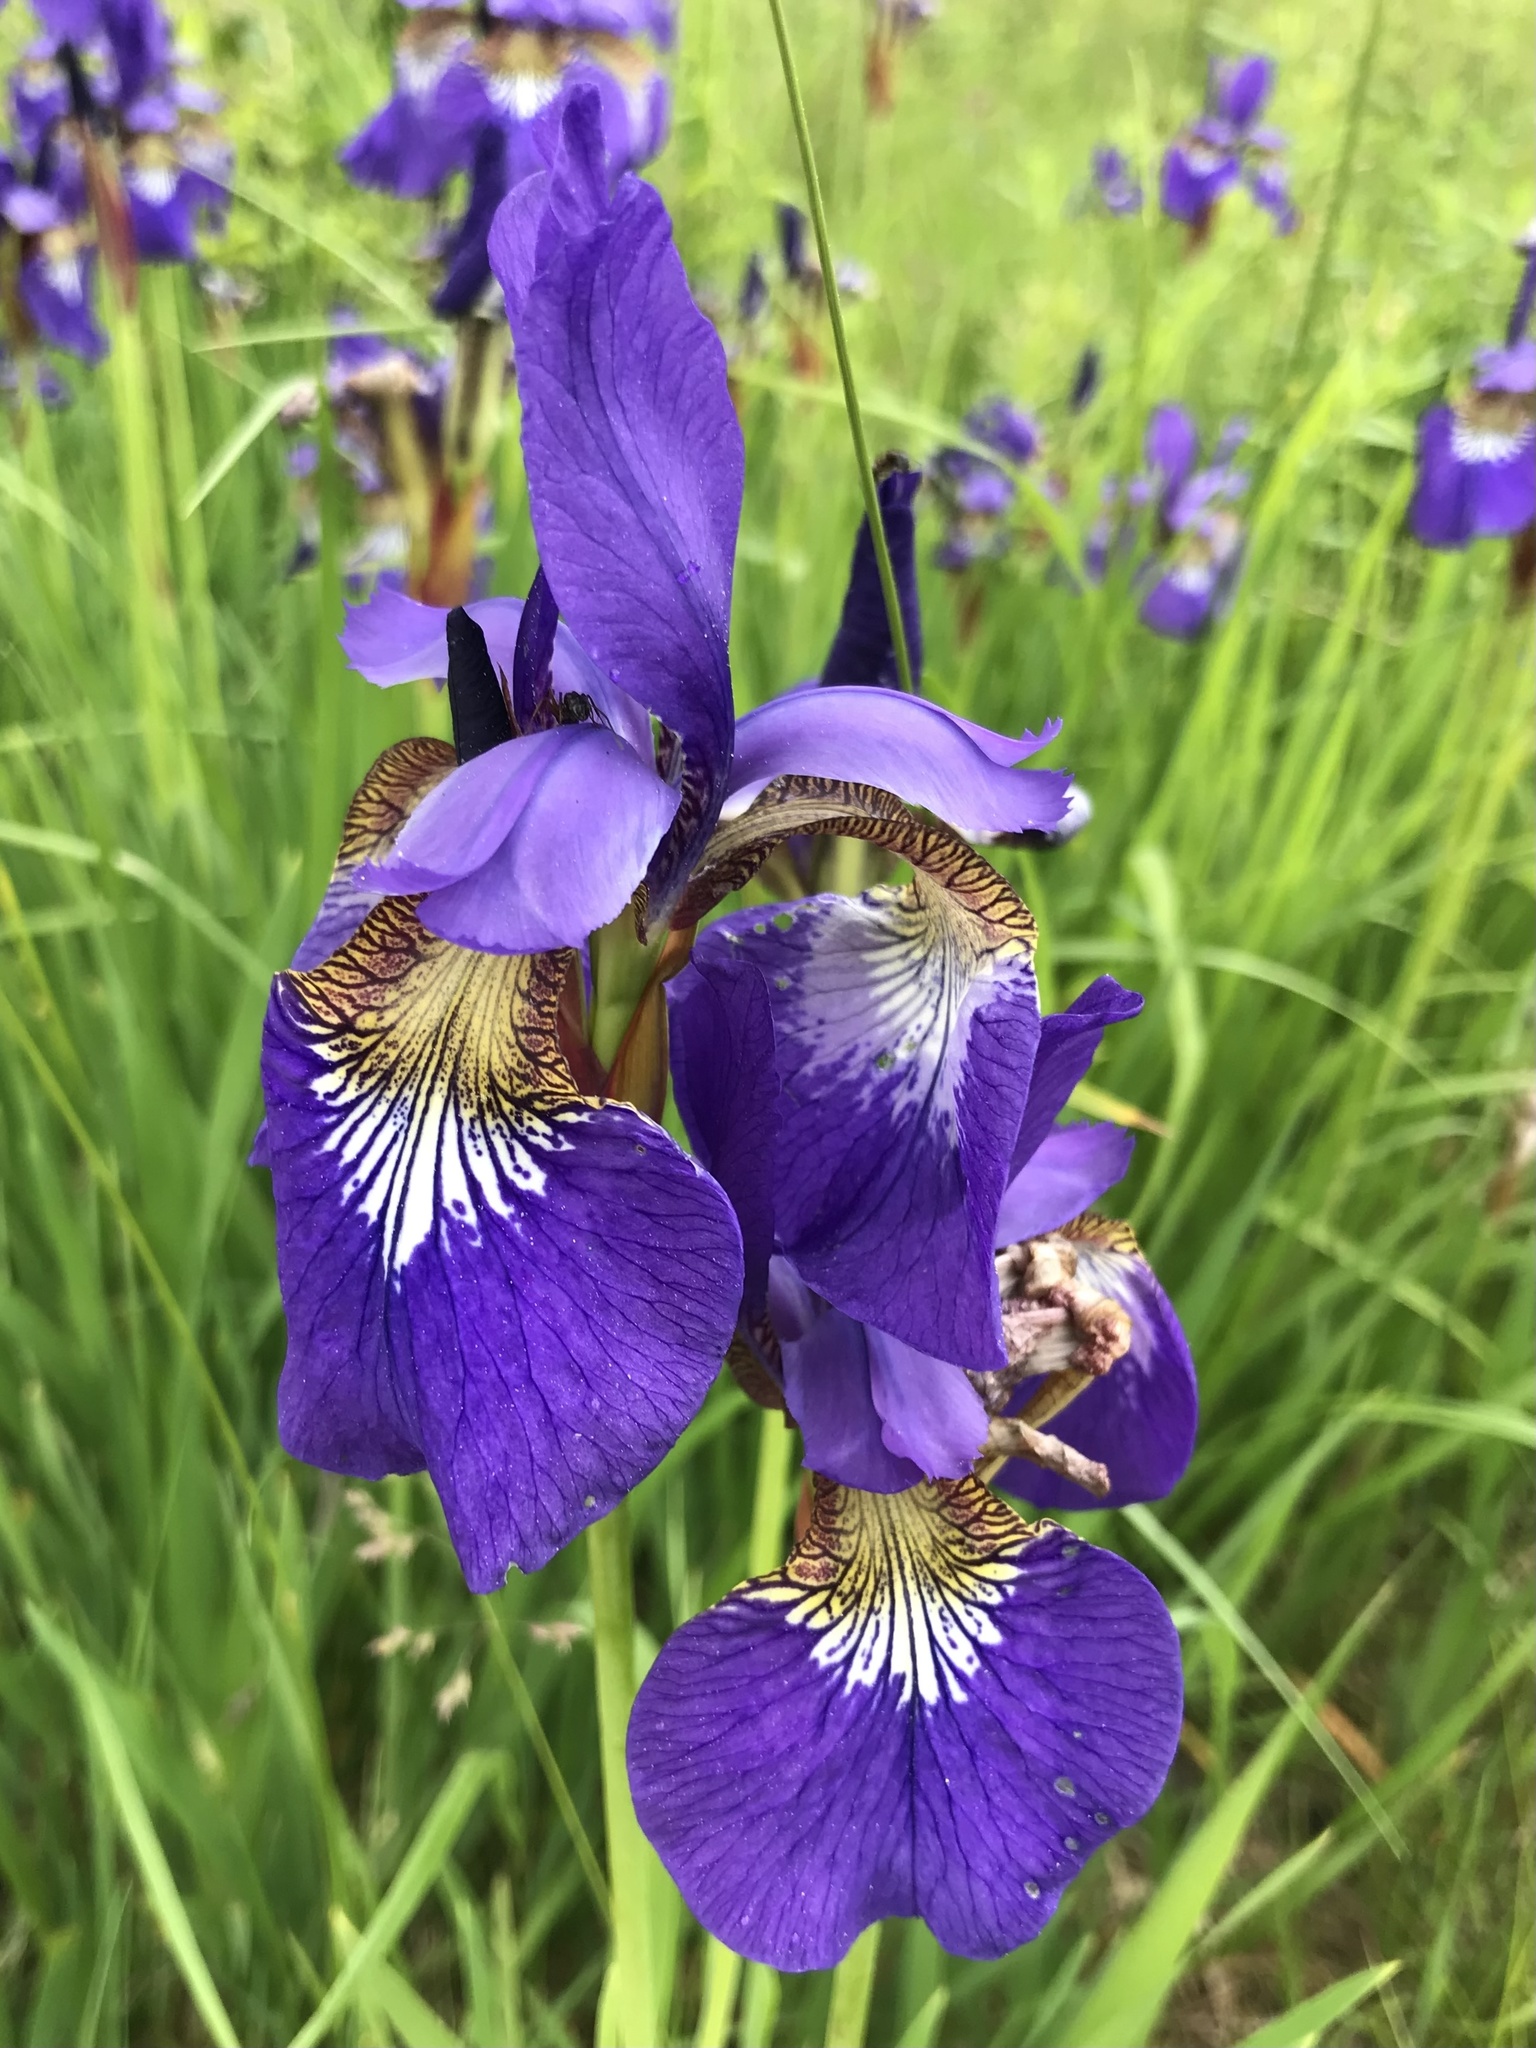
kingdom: Plantae
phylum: Tracheophyta
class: Liliopsida
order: Asparagales
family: Iridaceae
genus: Iris
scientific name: Iris sanguinea
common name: Blood iris
